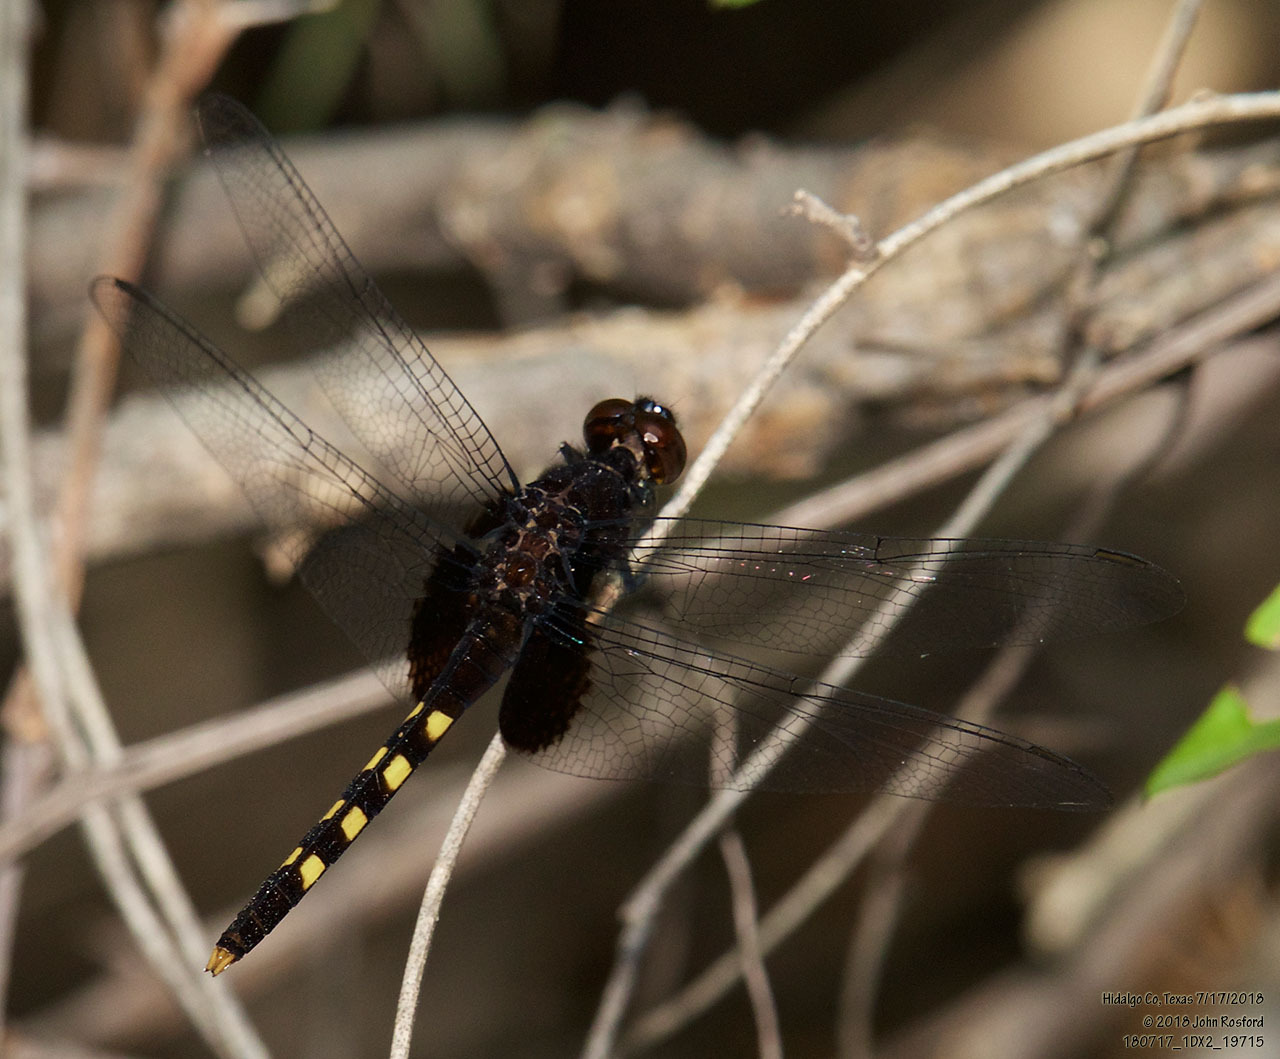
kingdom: Animalia
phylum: Arthropoda
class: Insecta
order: Odonata
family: Libellulidae
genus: Erythemis
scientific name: Erythemis attala
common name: Black pondhawk
